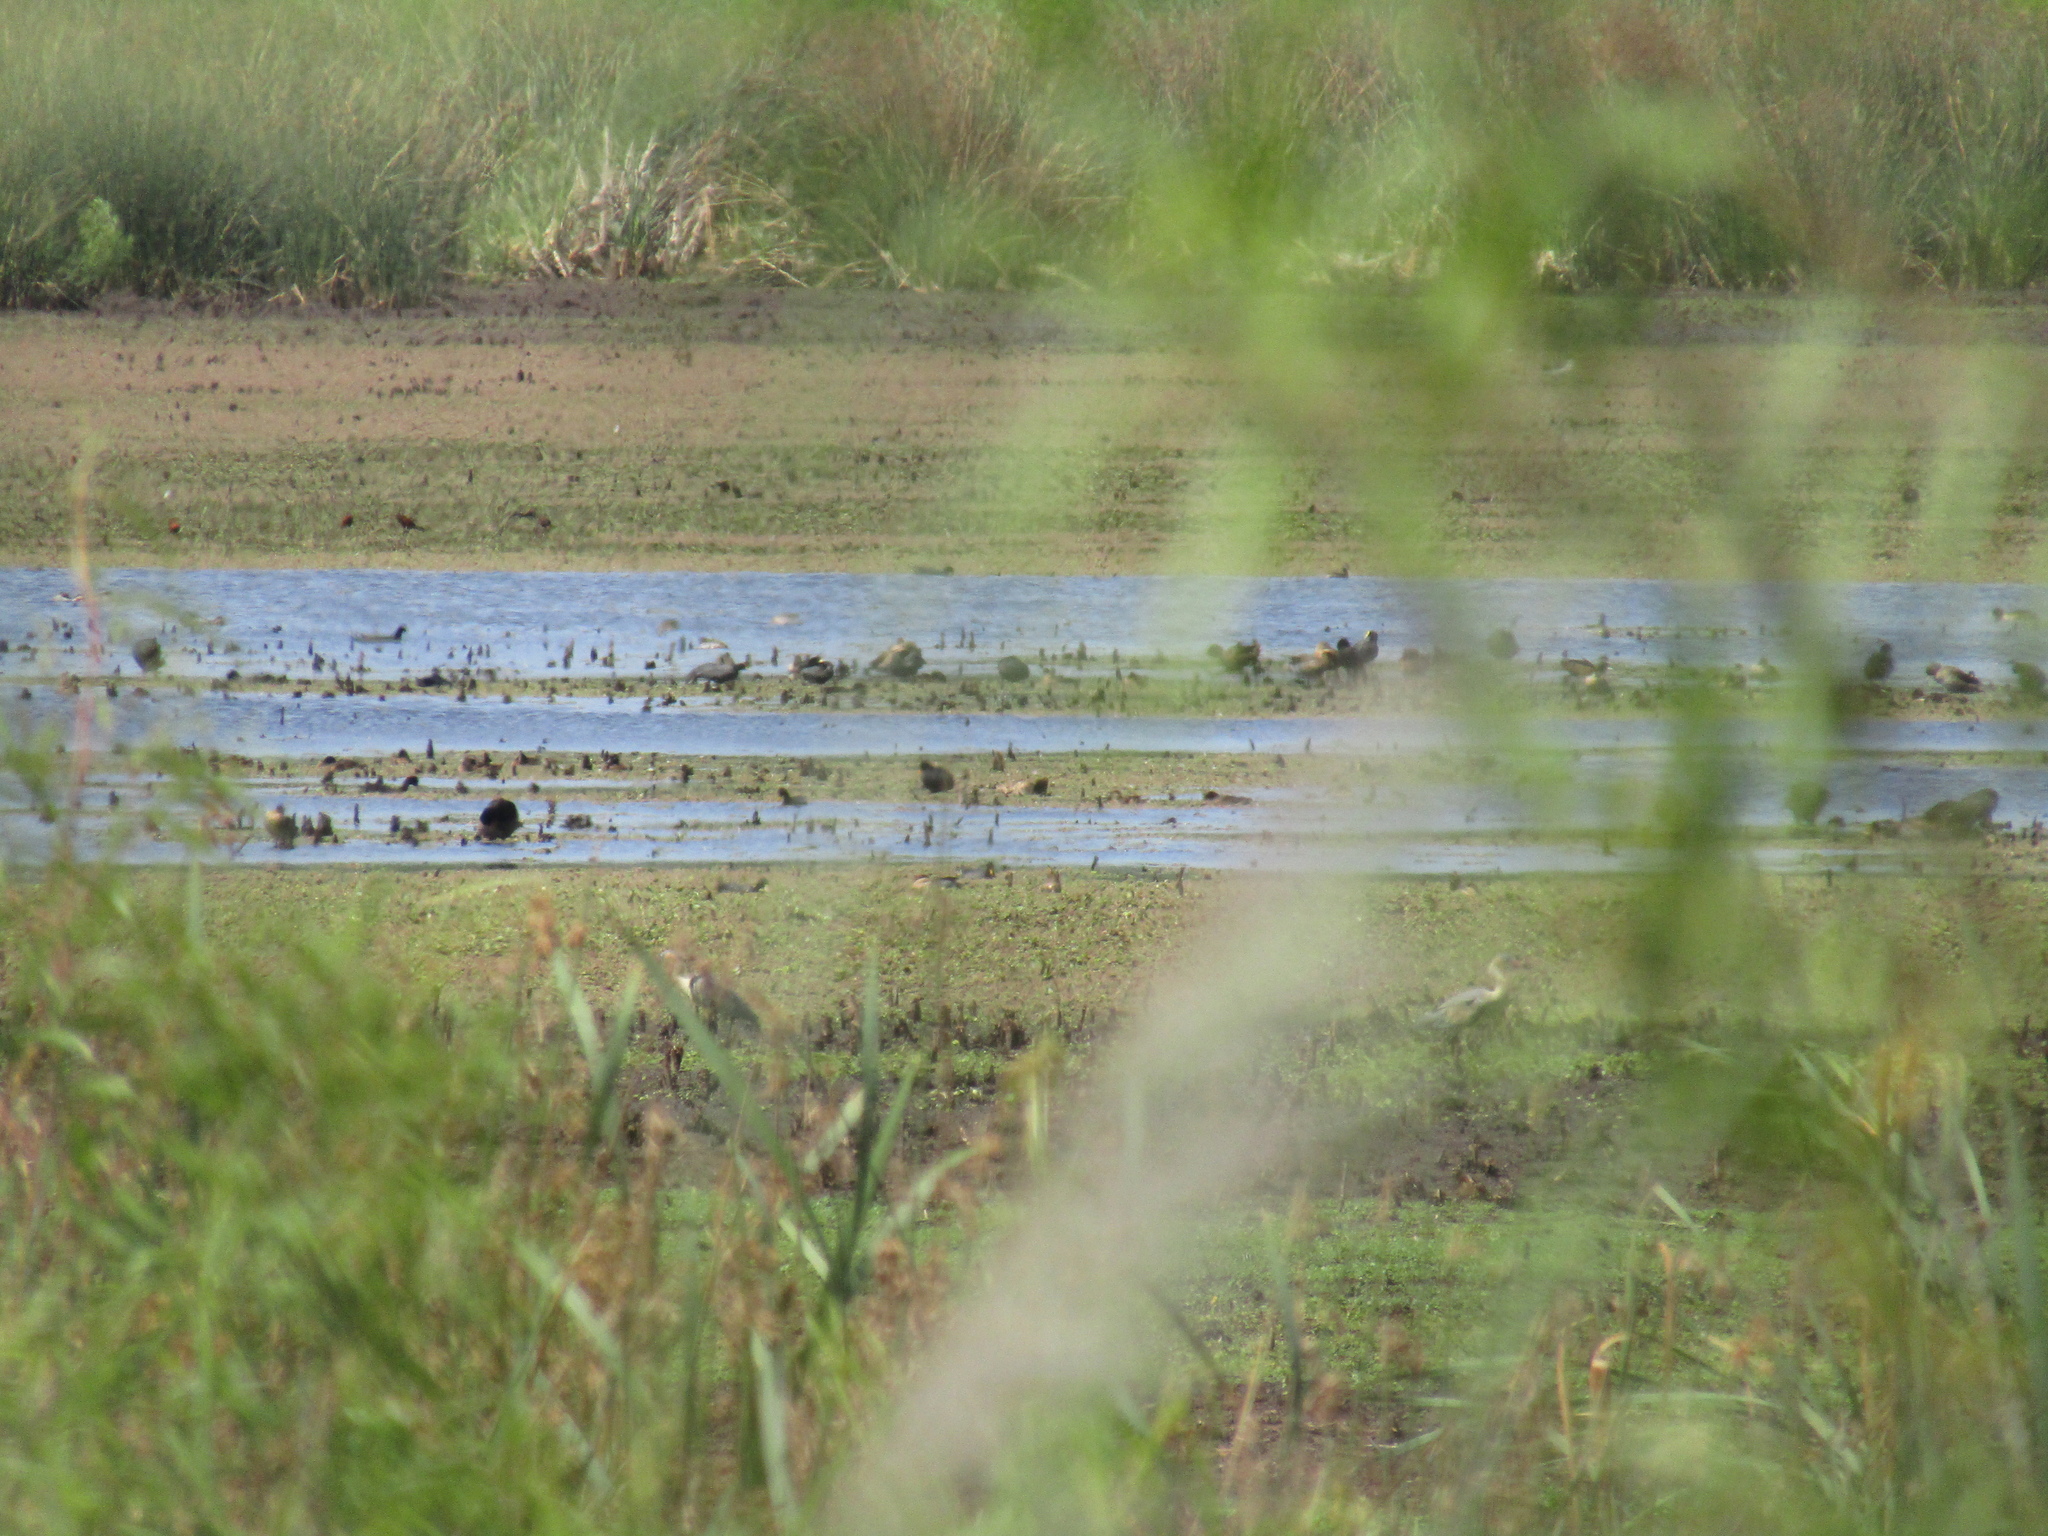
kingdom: Animalia
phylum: Chordata
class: Aves
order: Pelecaniformes
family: Ardeidae
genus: Syrigma
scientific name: Syrigma sibilatrix
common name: Whistling heron
